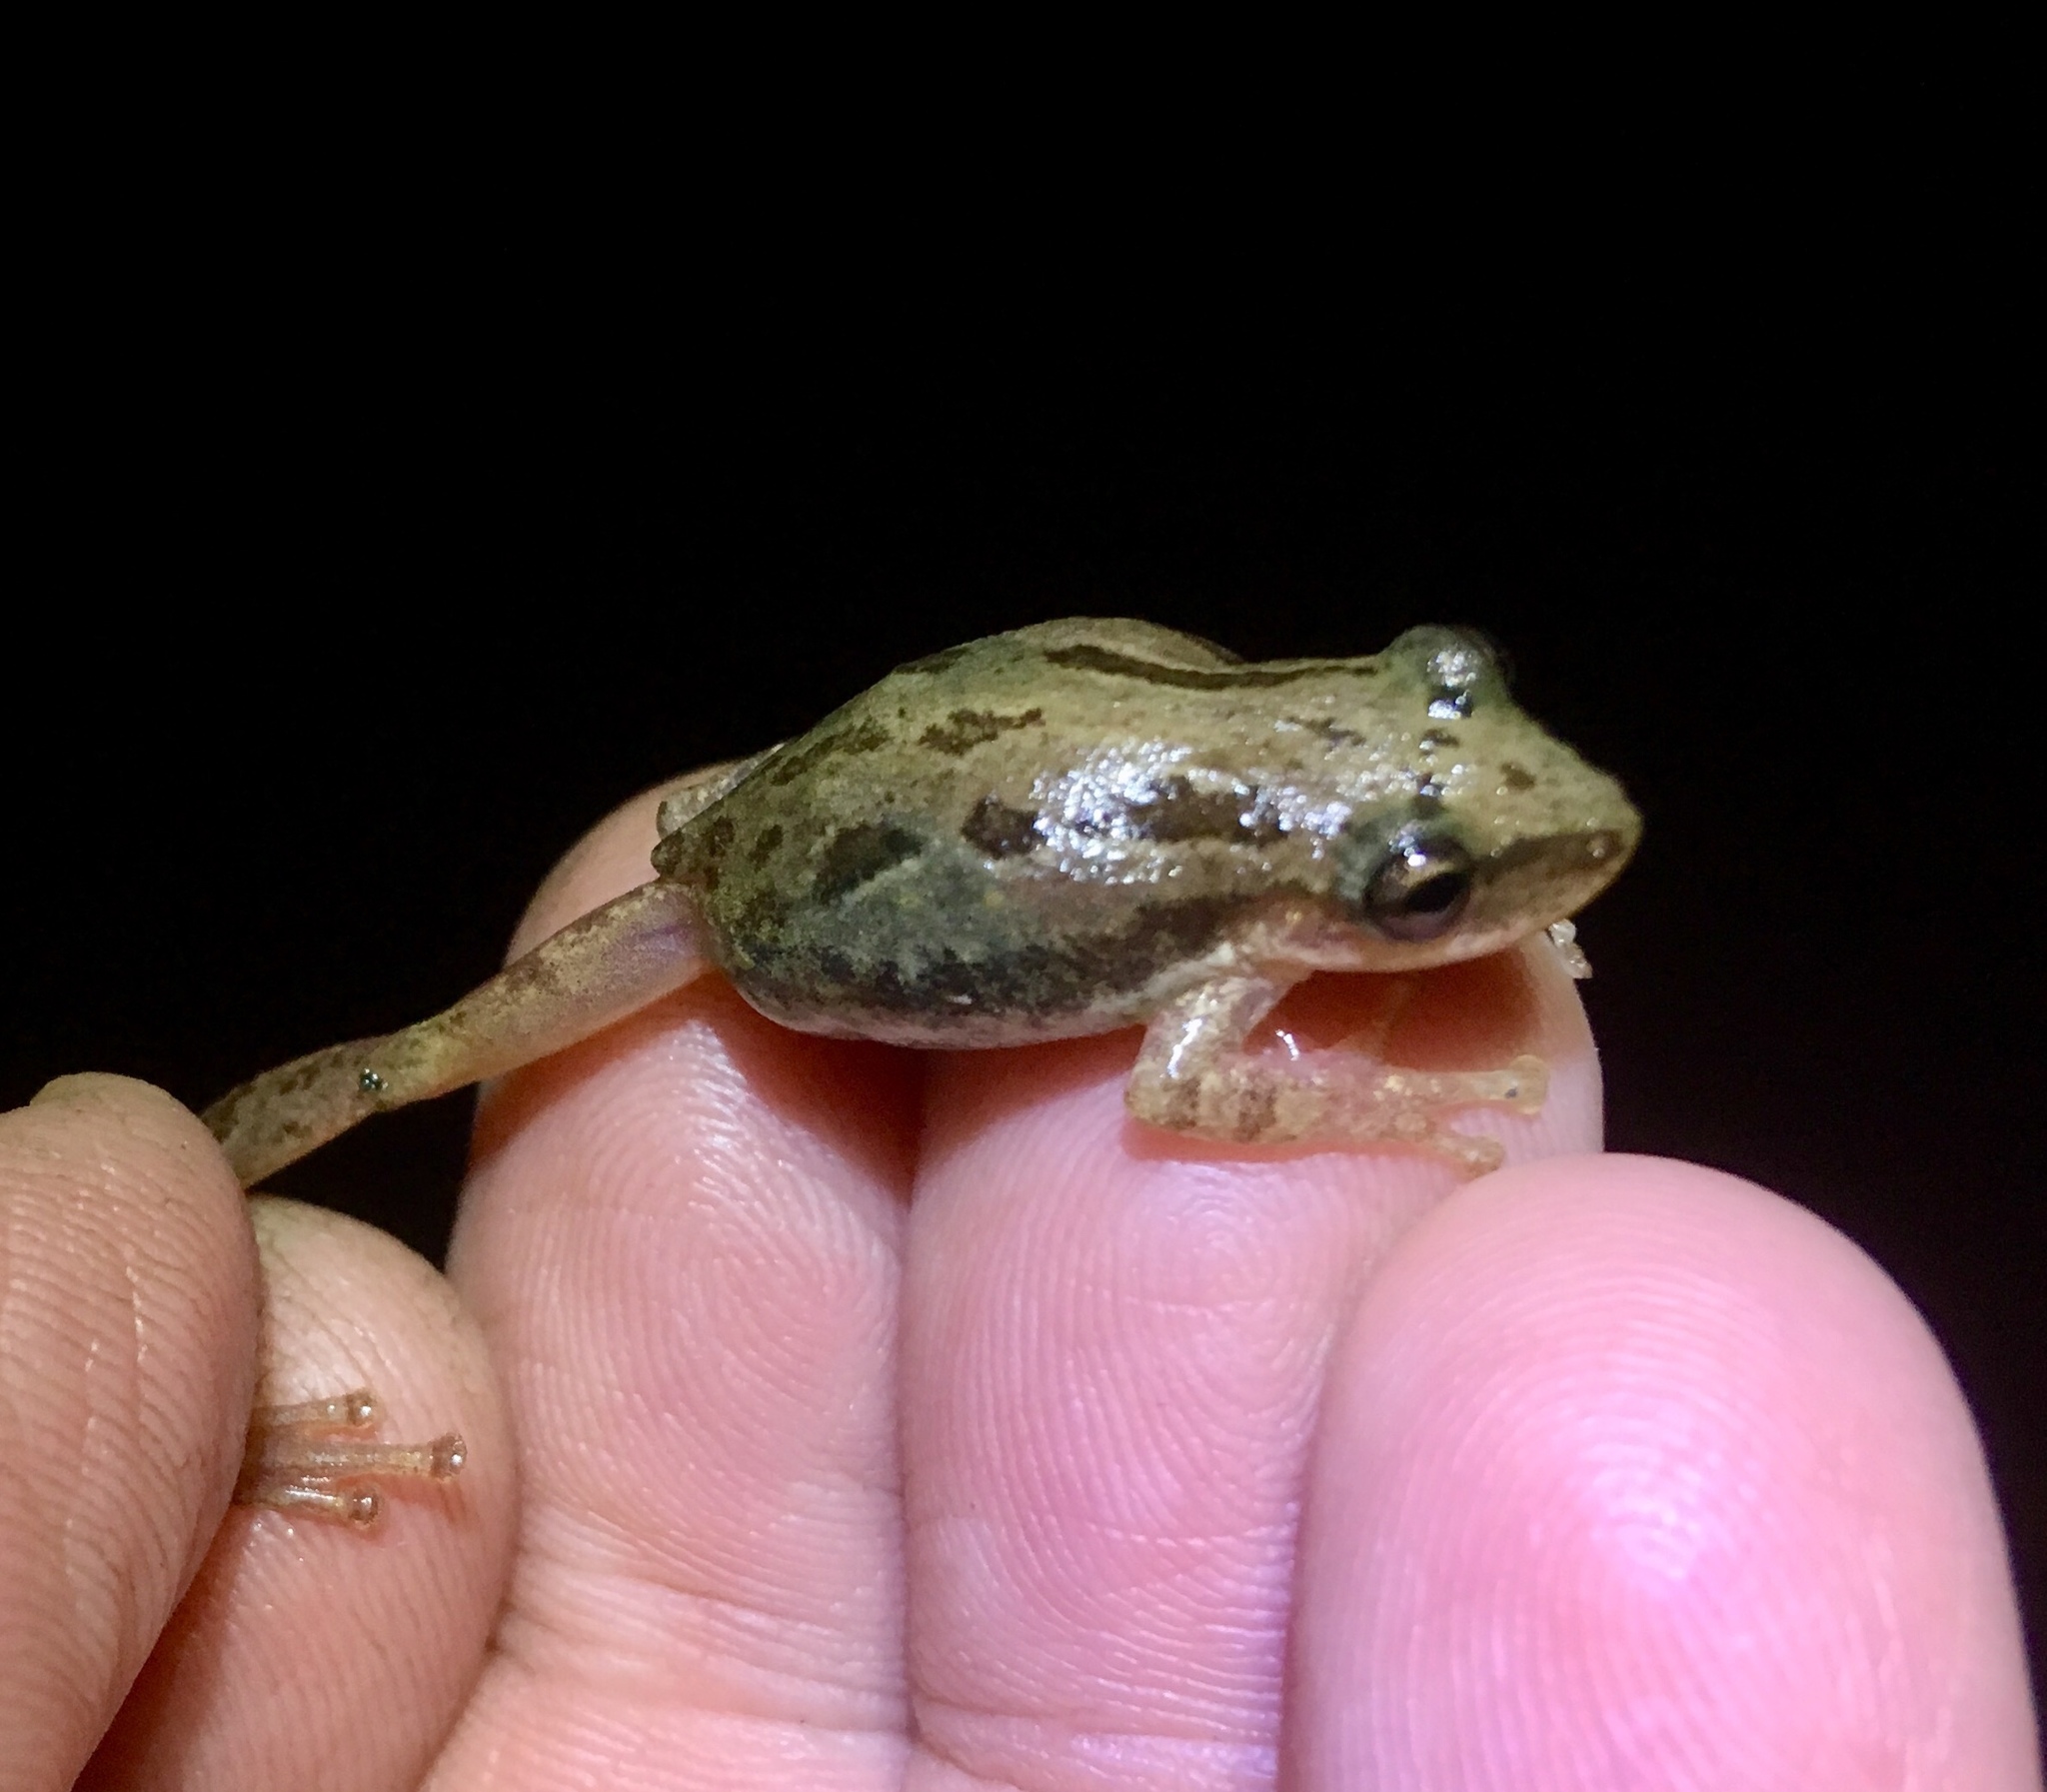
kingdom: Animalia
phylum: Chordata
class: Amphibia
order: Anura
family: Hylidae
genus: Scinax
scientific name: Scinax staufferi
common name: Stauffer's long-nosed treefrog
